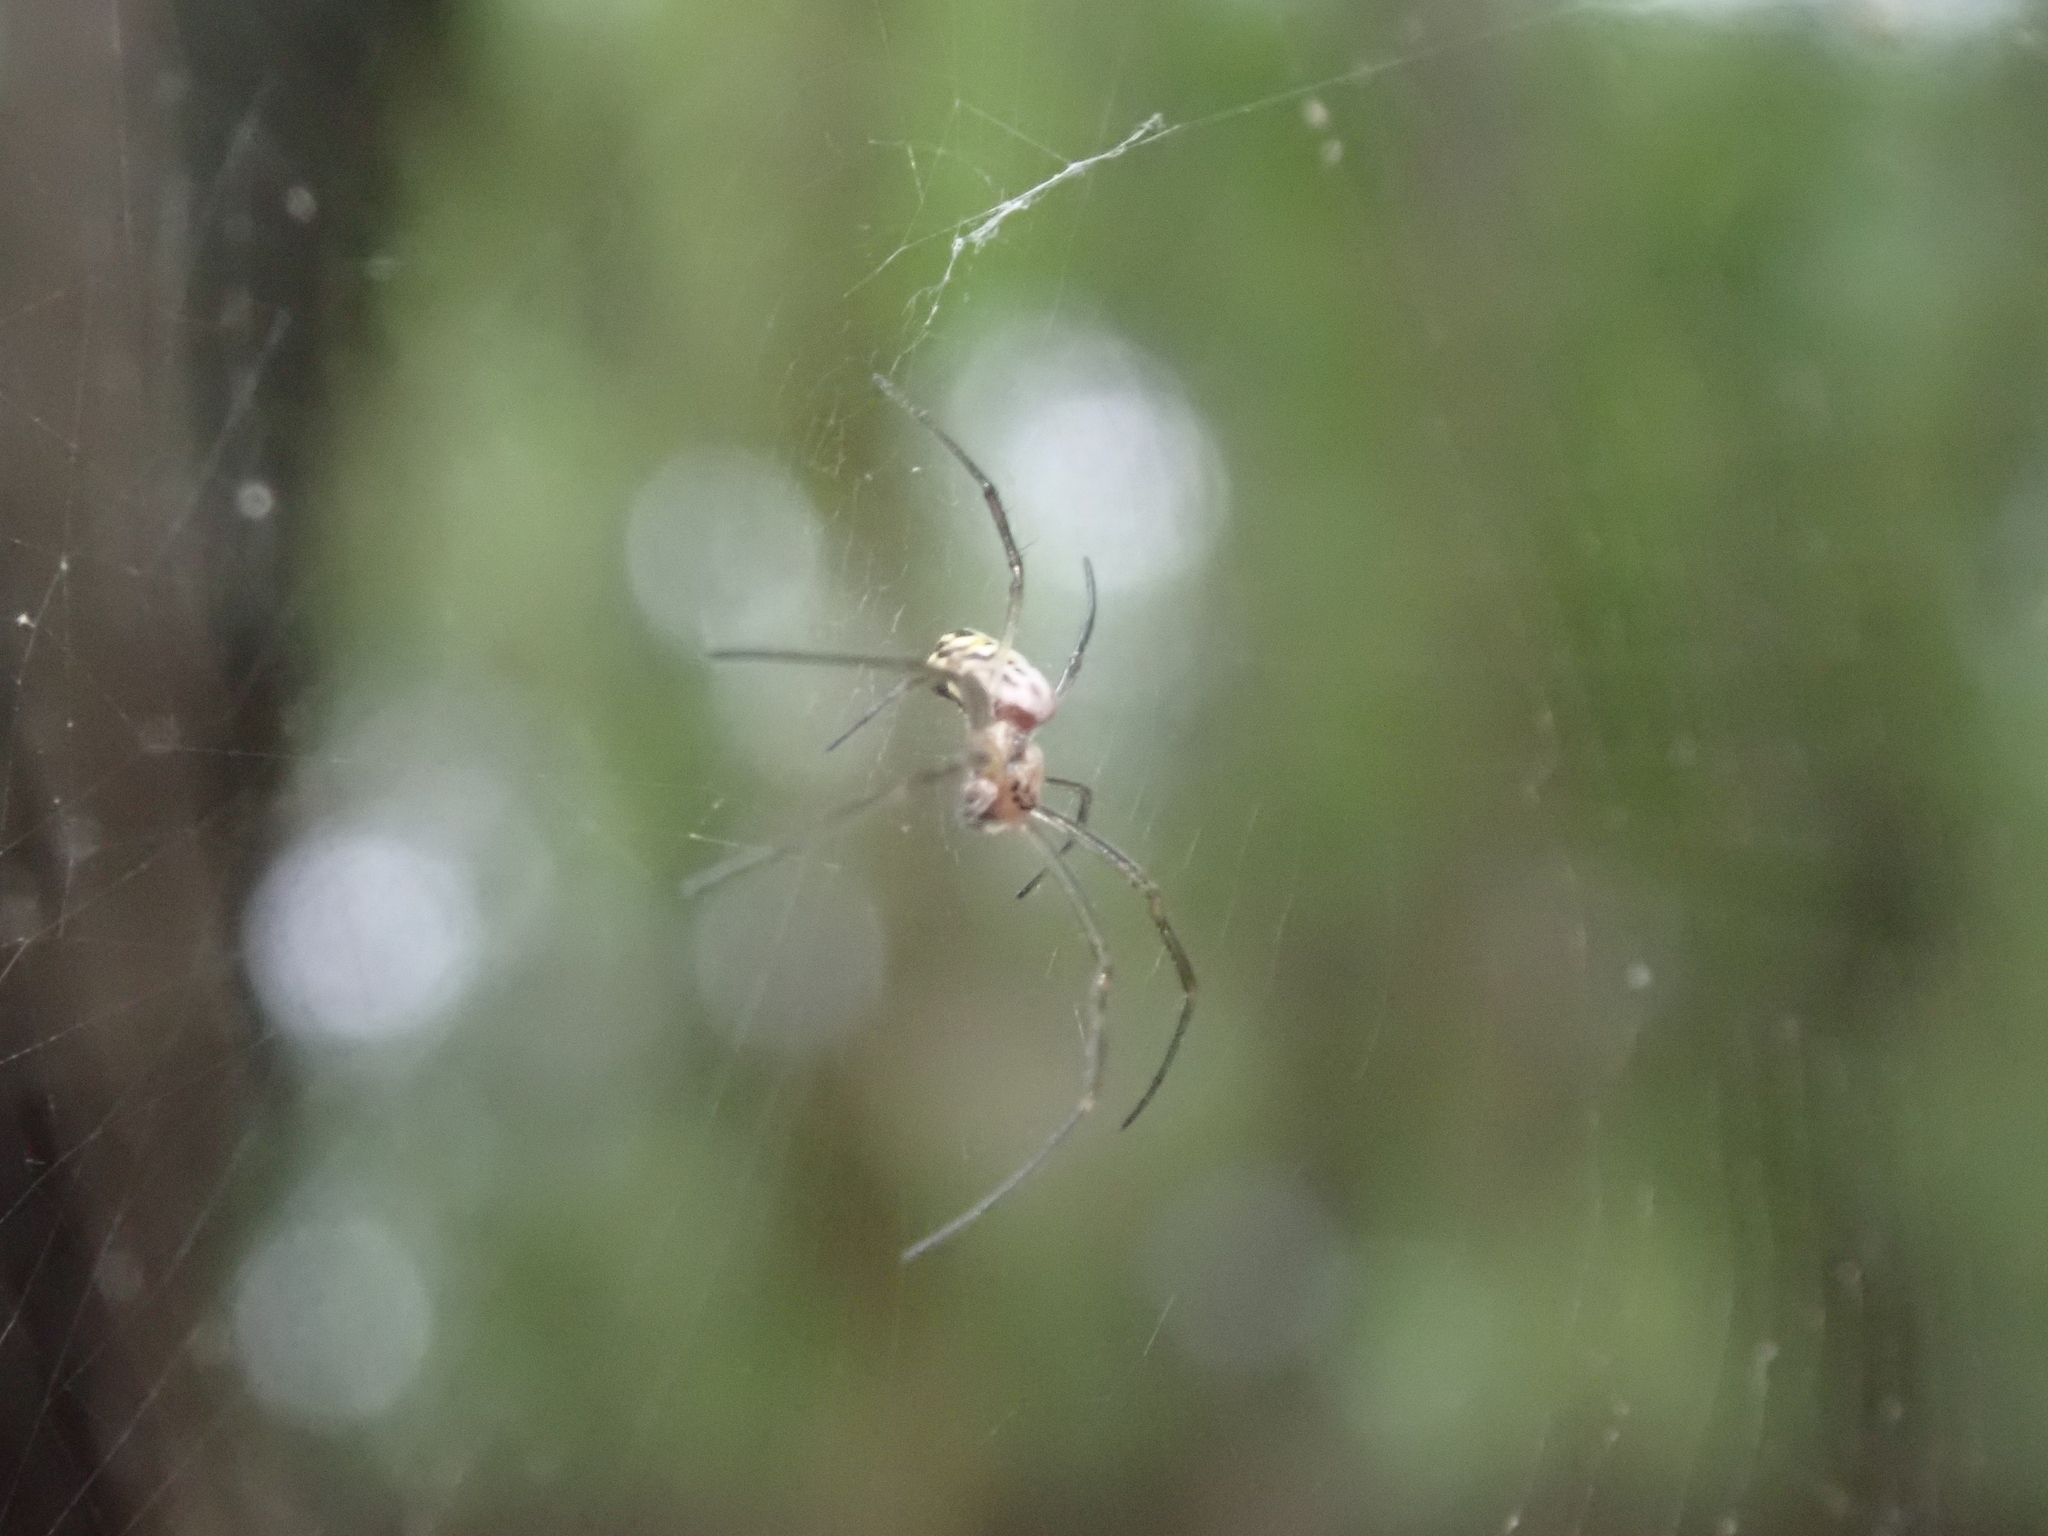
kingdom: Animalia
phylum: Arthropoda
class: Arachnida
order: Araneae
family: Araneidae
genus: Trichonephila
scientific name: Trichonephila clavipes
